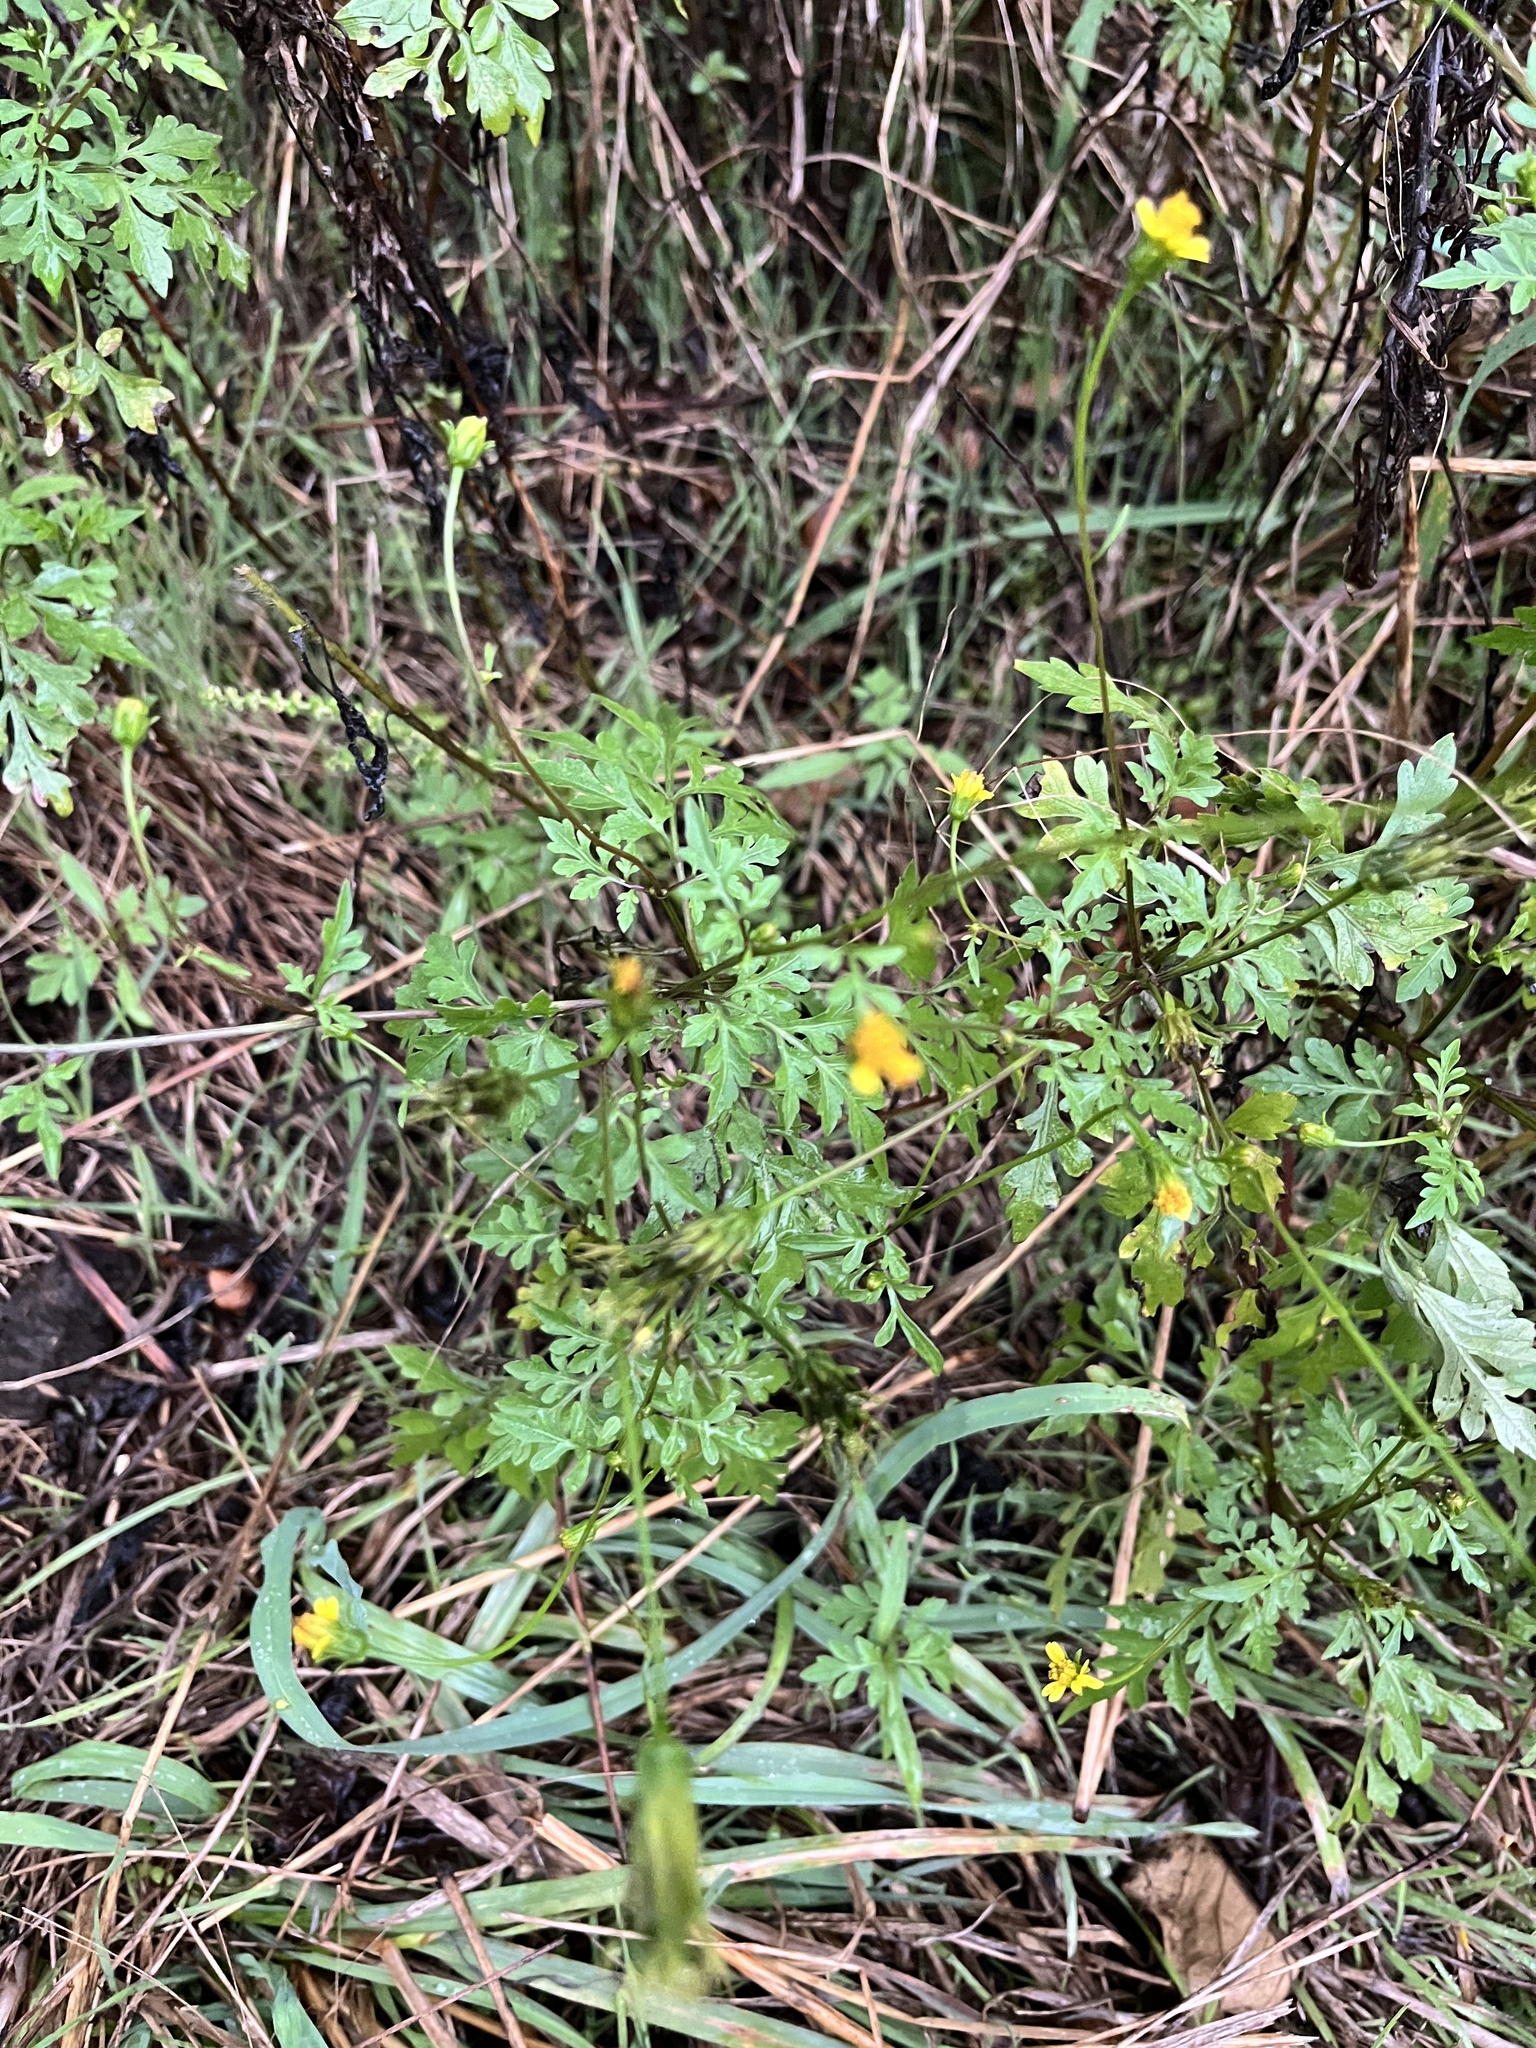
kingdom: Plantae
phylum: Tracheophyta
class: Magnoliopsida
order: Asterales
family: Asteraceae
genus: Bidens
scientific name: Bidens bipinnata
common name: Spanish-needles
